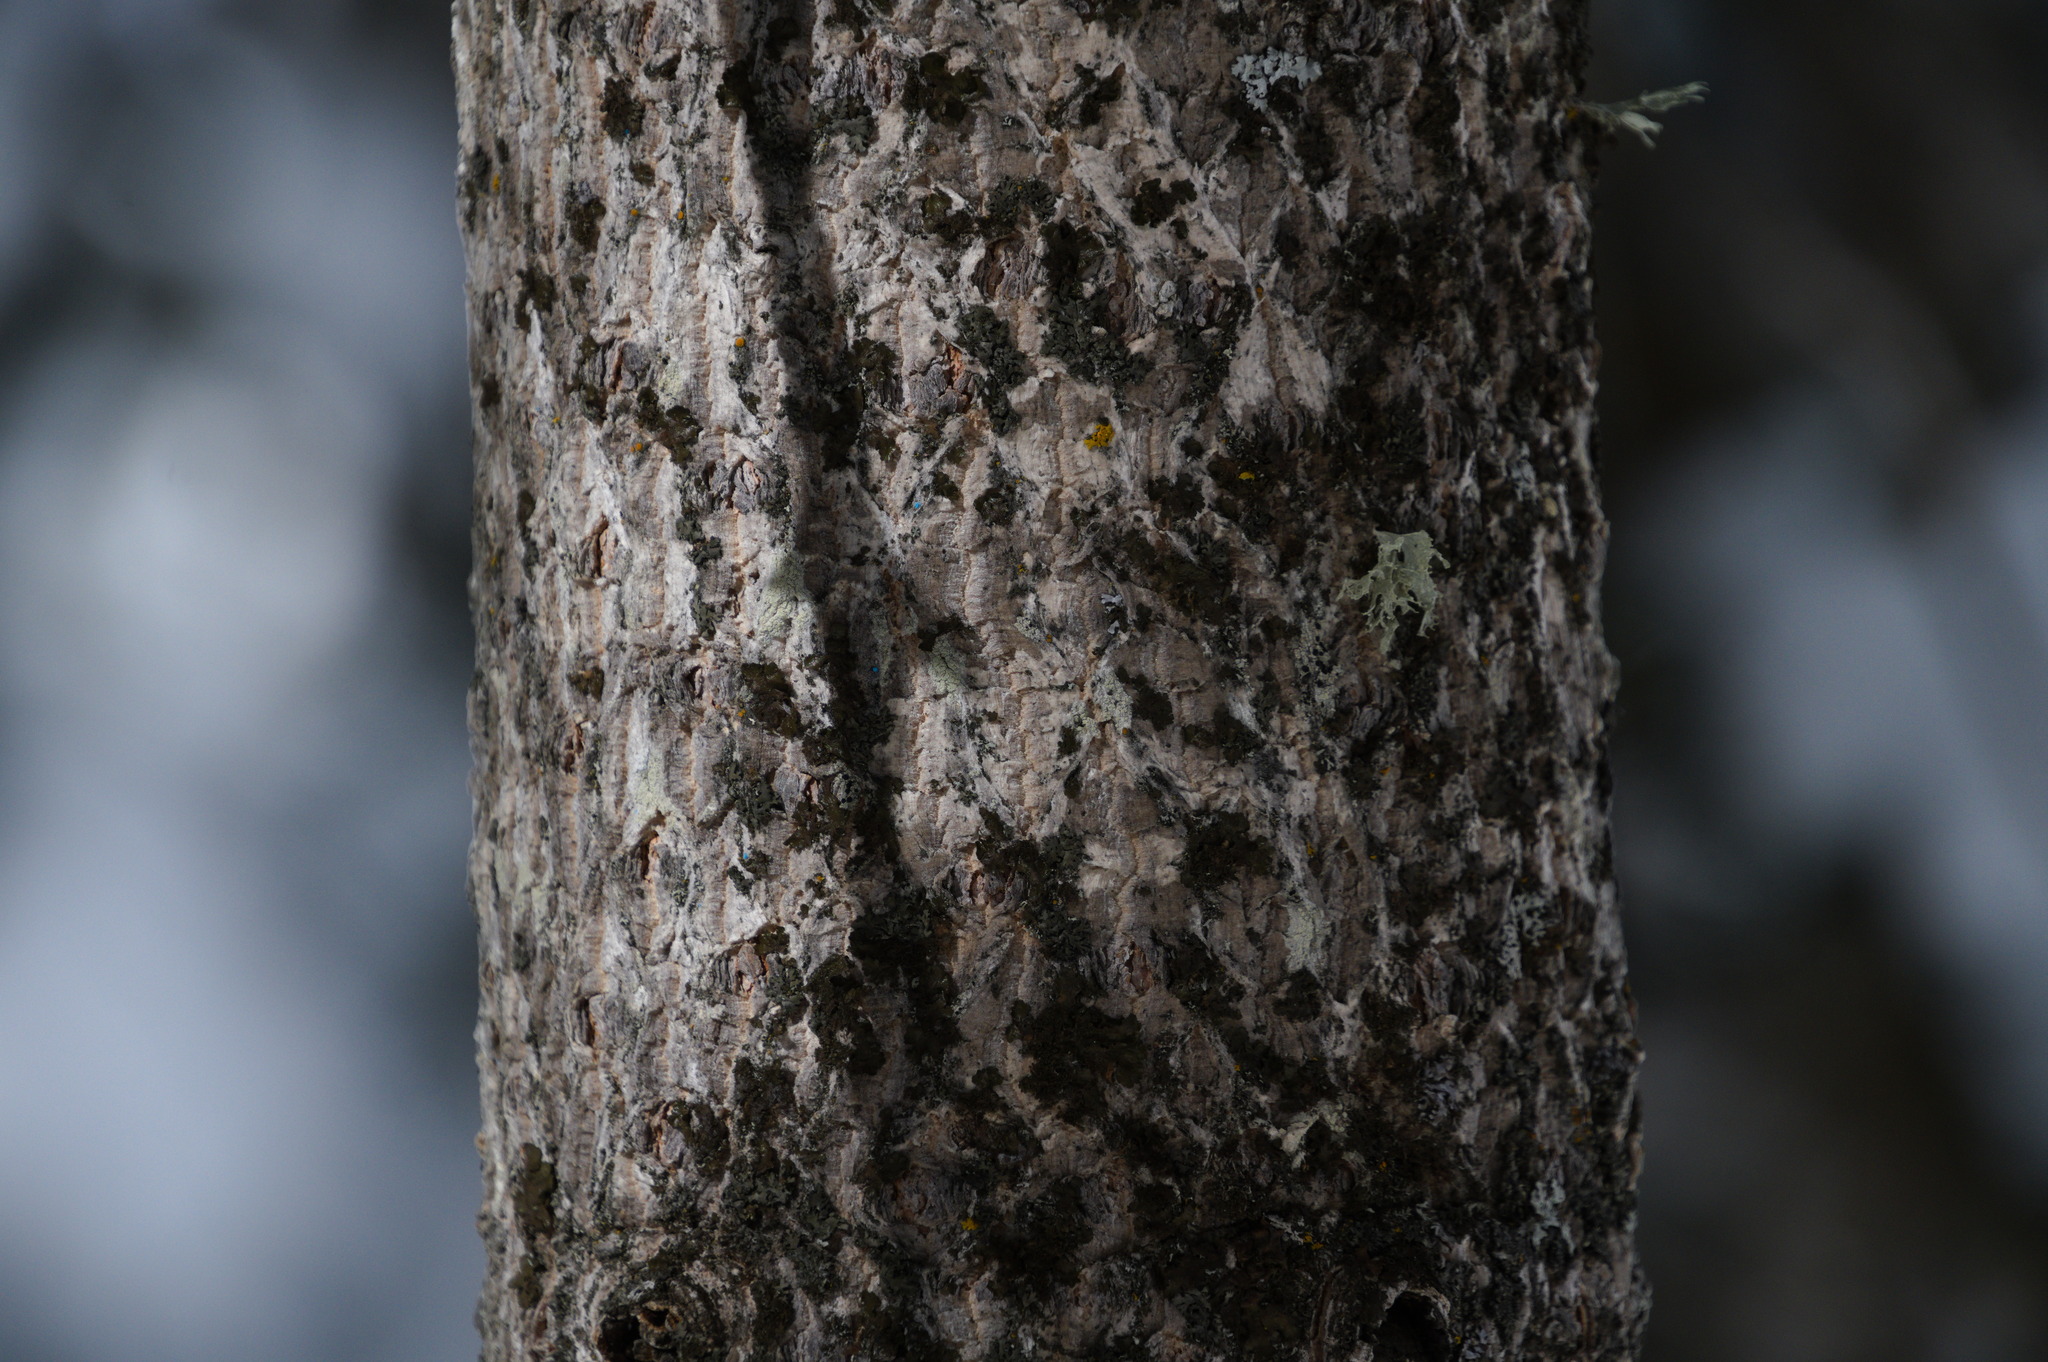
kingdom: Plantae
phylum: Tracheophyta
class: Pinopsida
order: Pinales
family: Pinaceae
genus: Abies
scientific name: Abies lasiocarpa
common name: Subalpine fir
